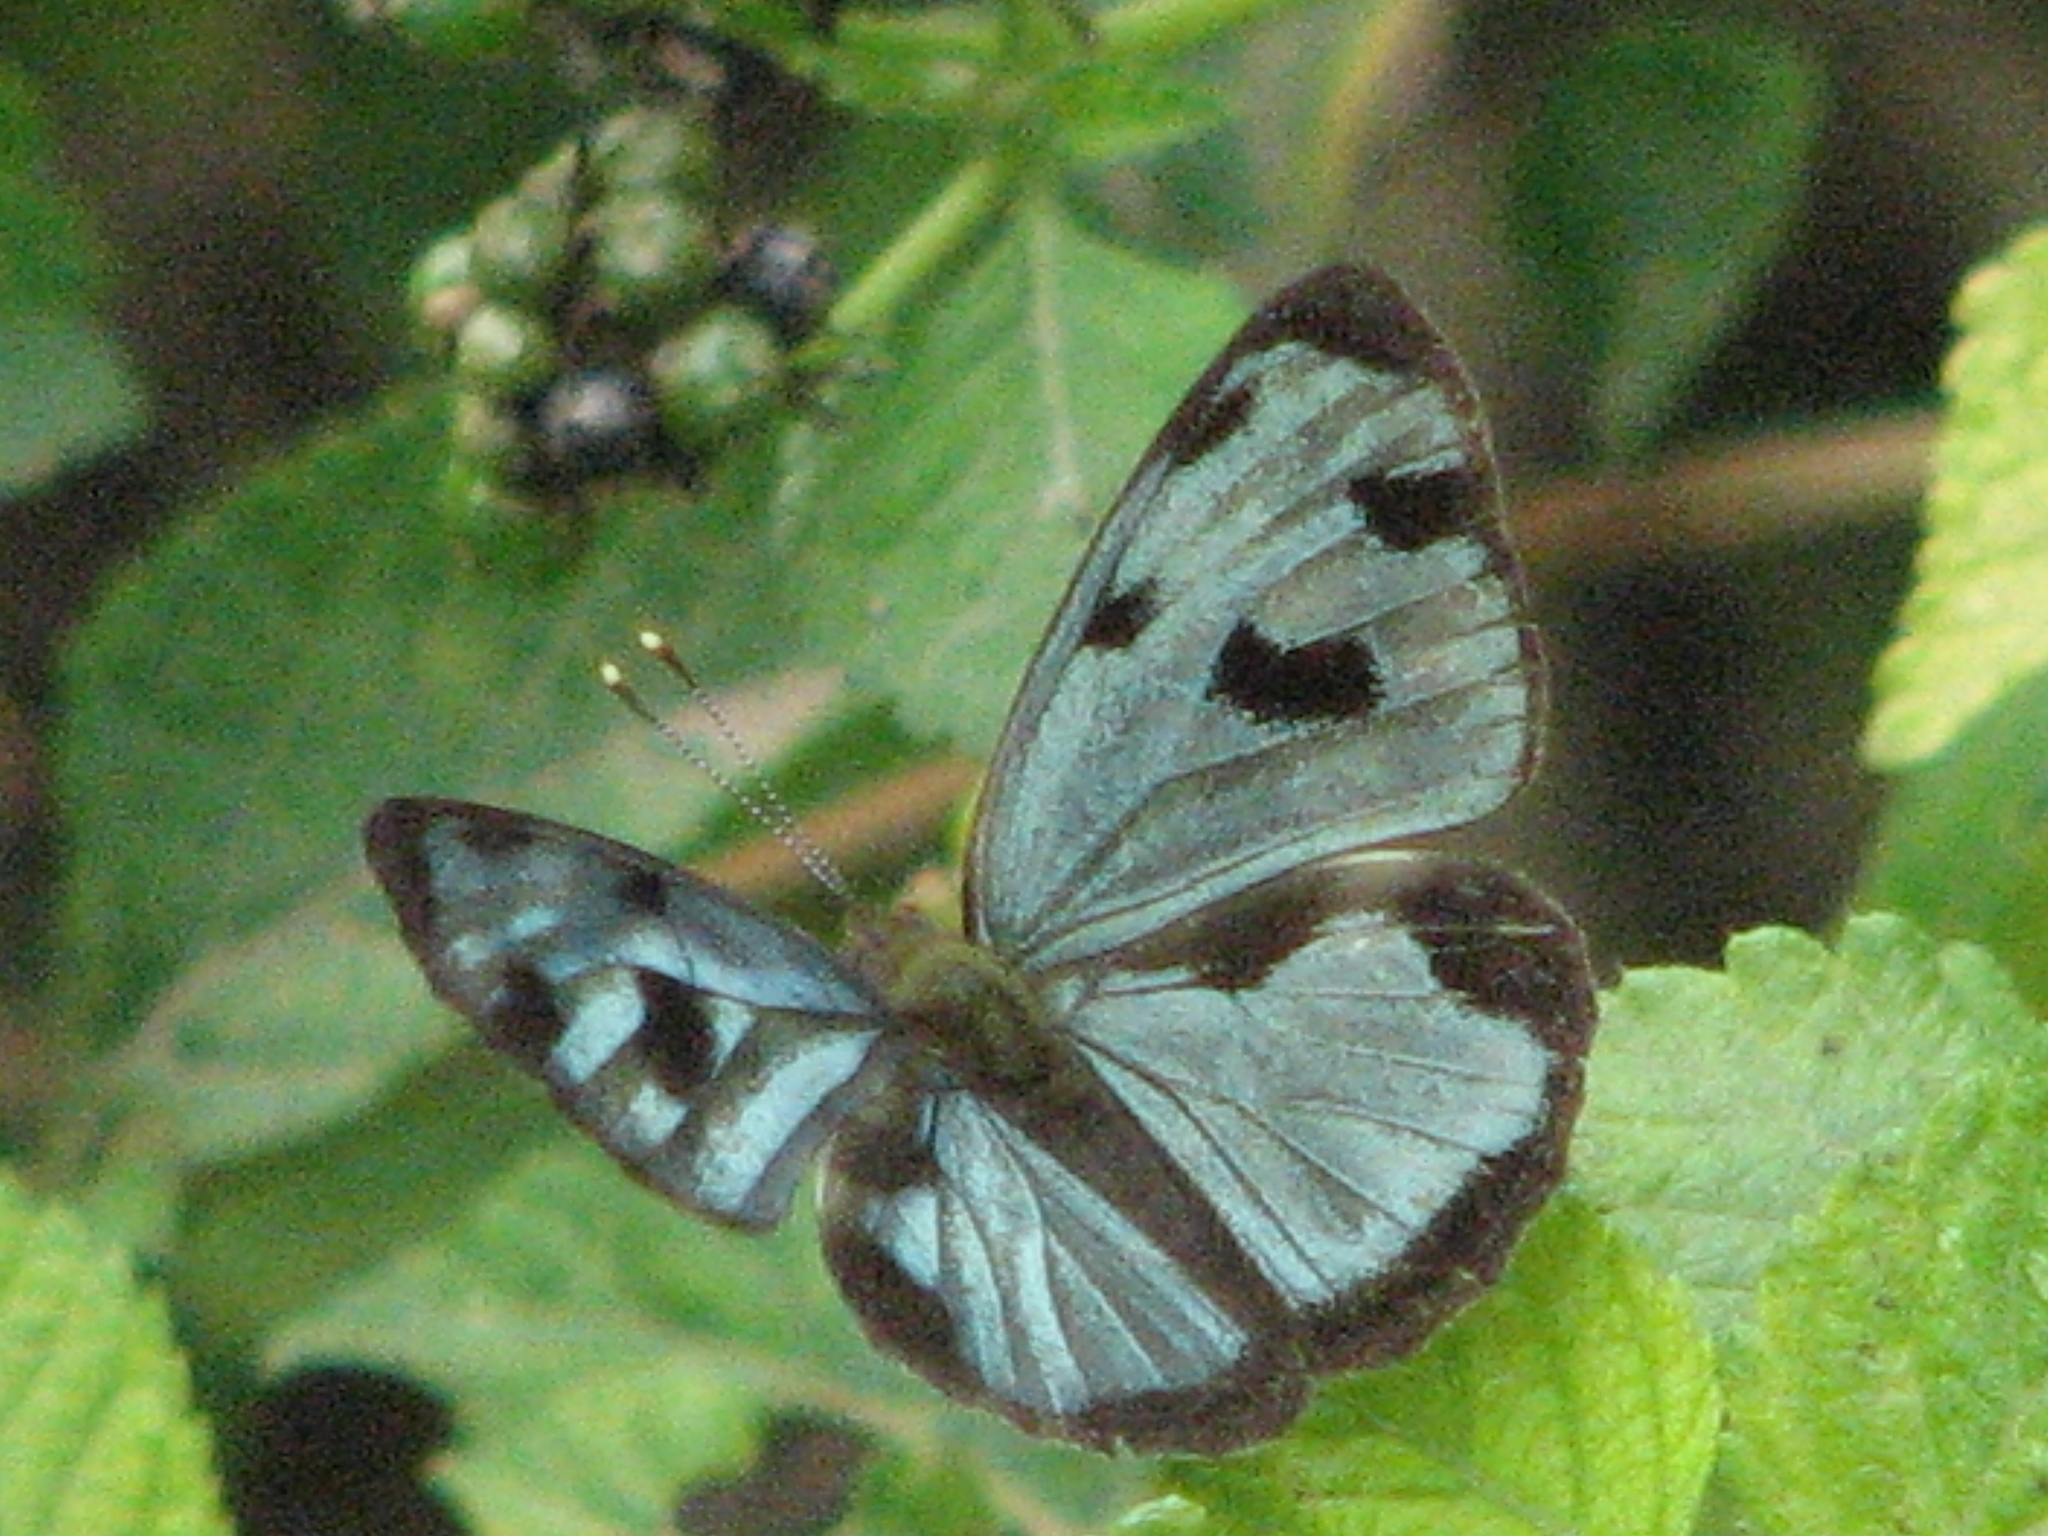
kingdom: Animalia
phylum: Arthropoda
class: Insecta
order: Lepidoptera
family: Nymphalidae
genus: Dynamine
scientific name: Dynamine mylitta
